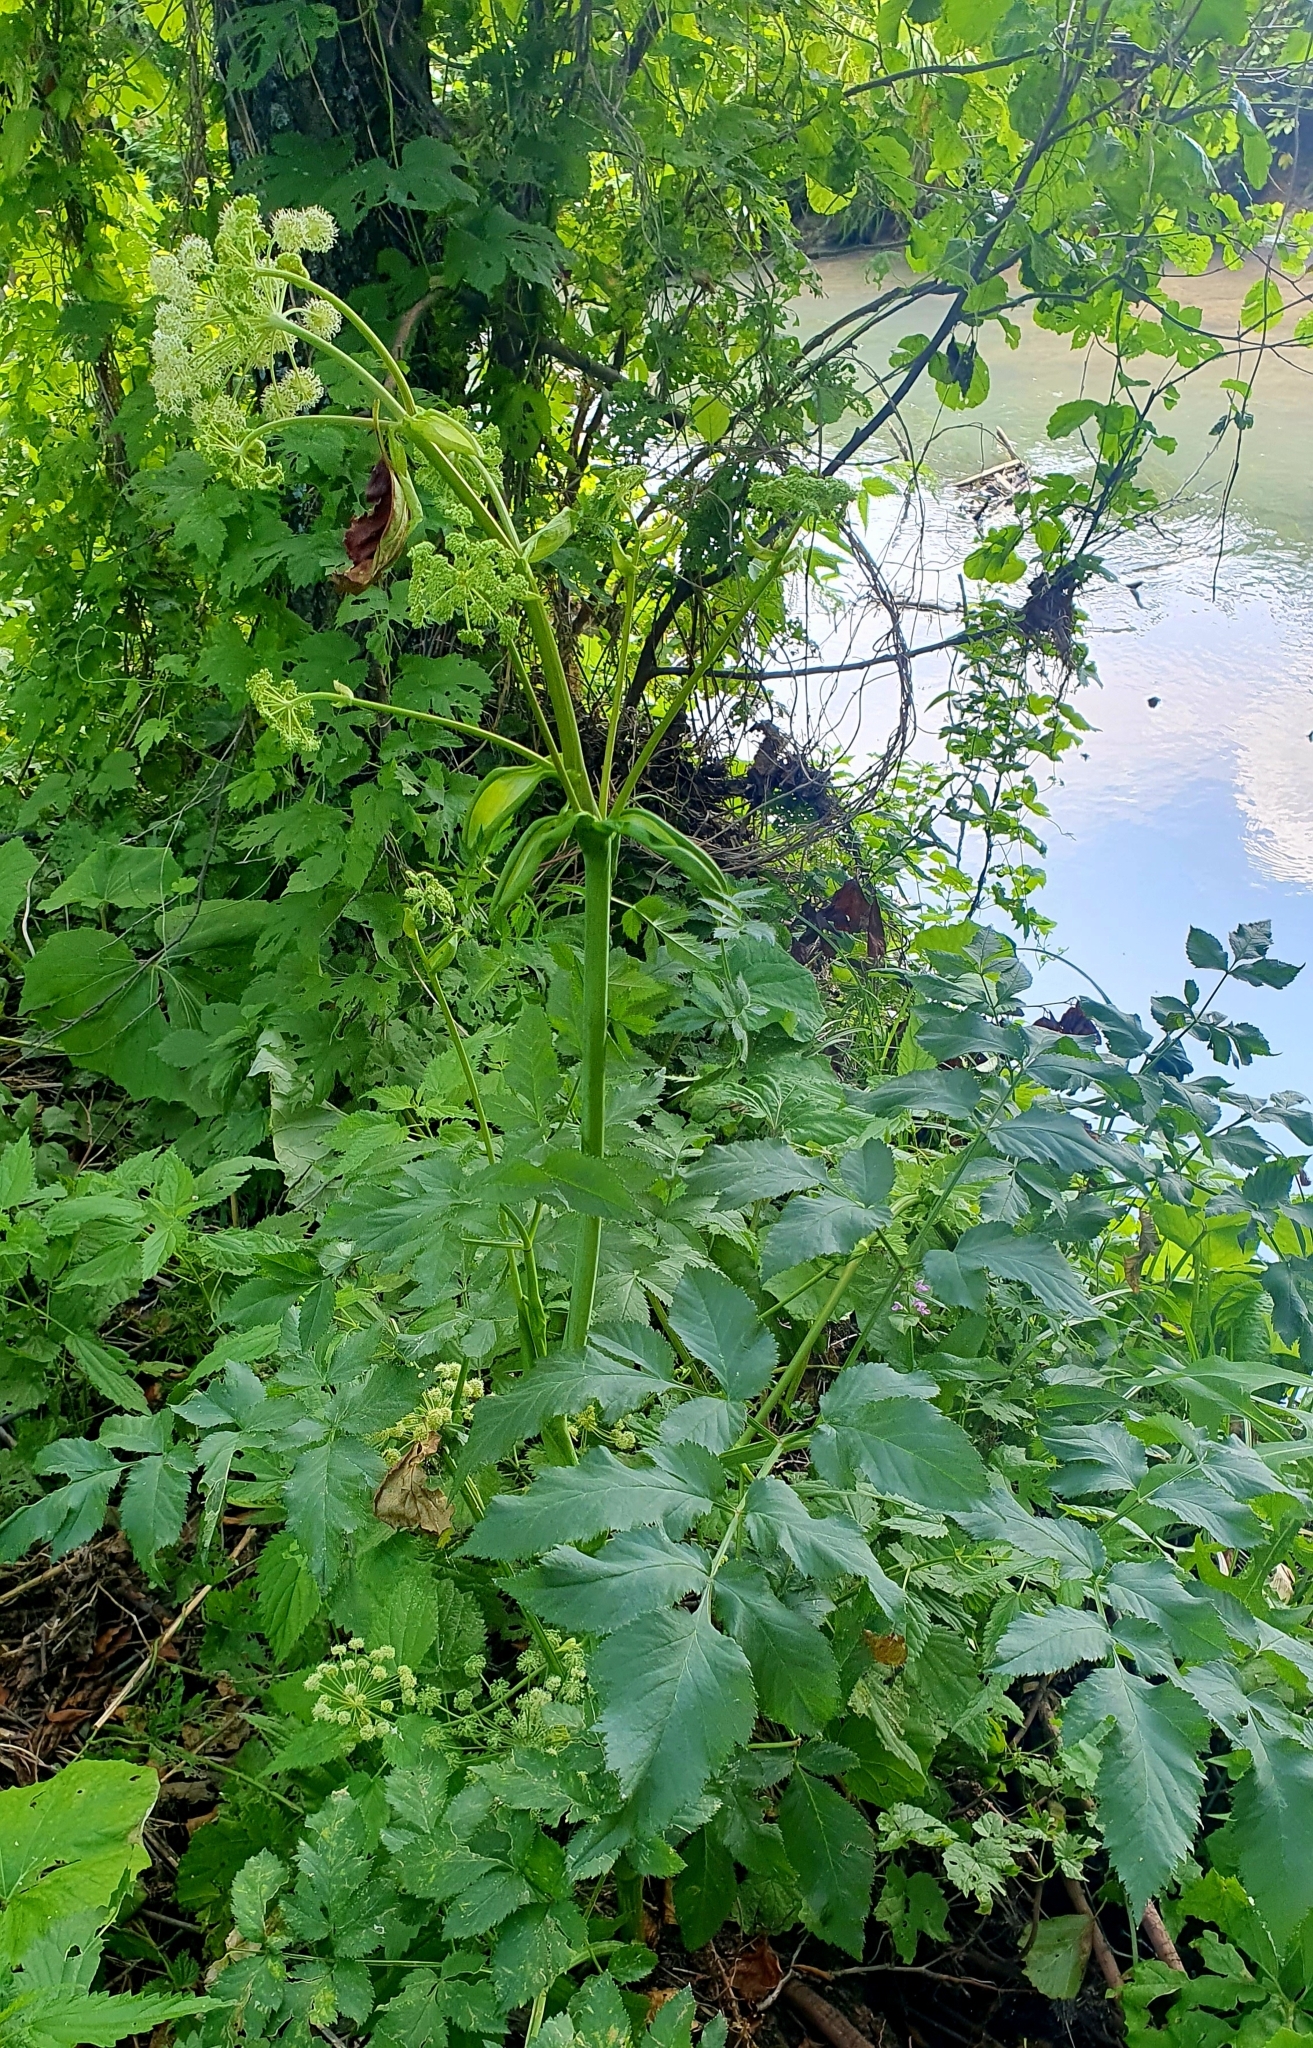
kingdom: Plantae
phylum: Tracheophyta
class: Magnoliopsida
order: Apiales
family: Apiaceae
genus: Angelica
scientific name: Angelica sylvestris
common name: Wild angelica
